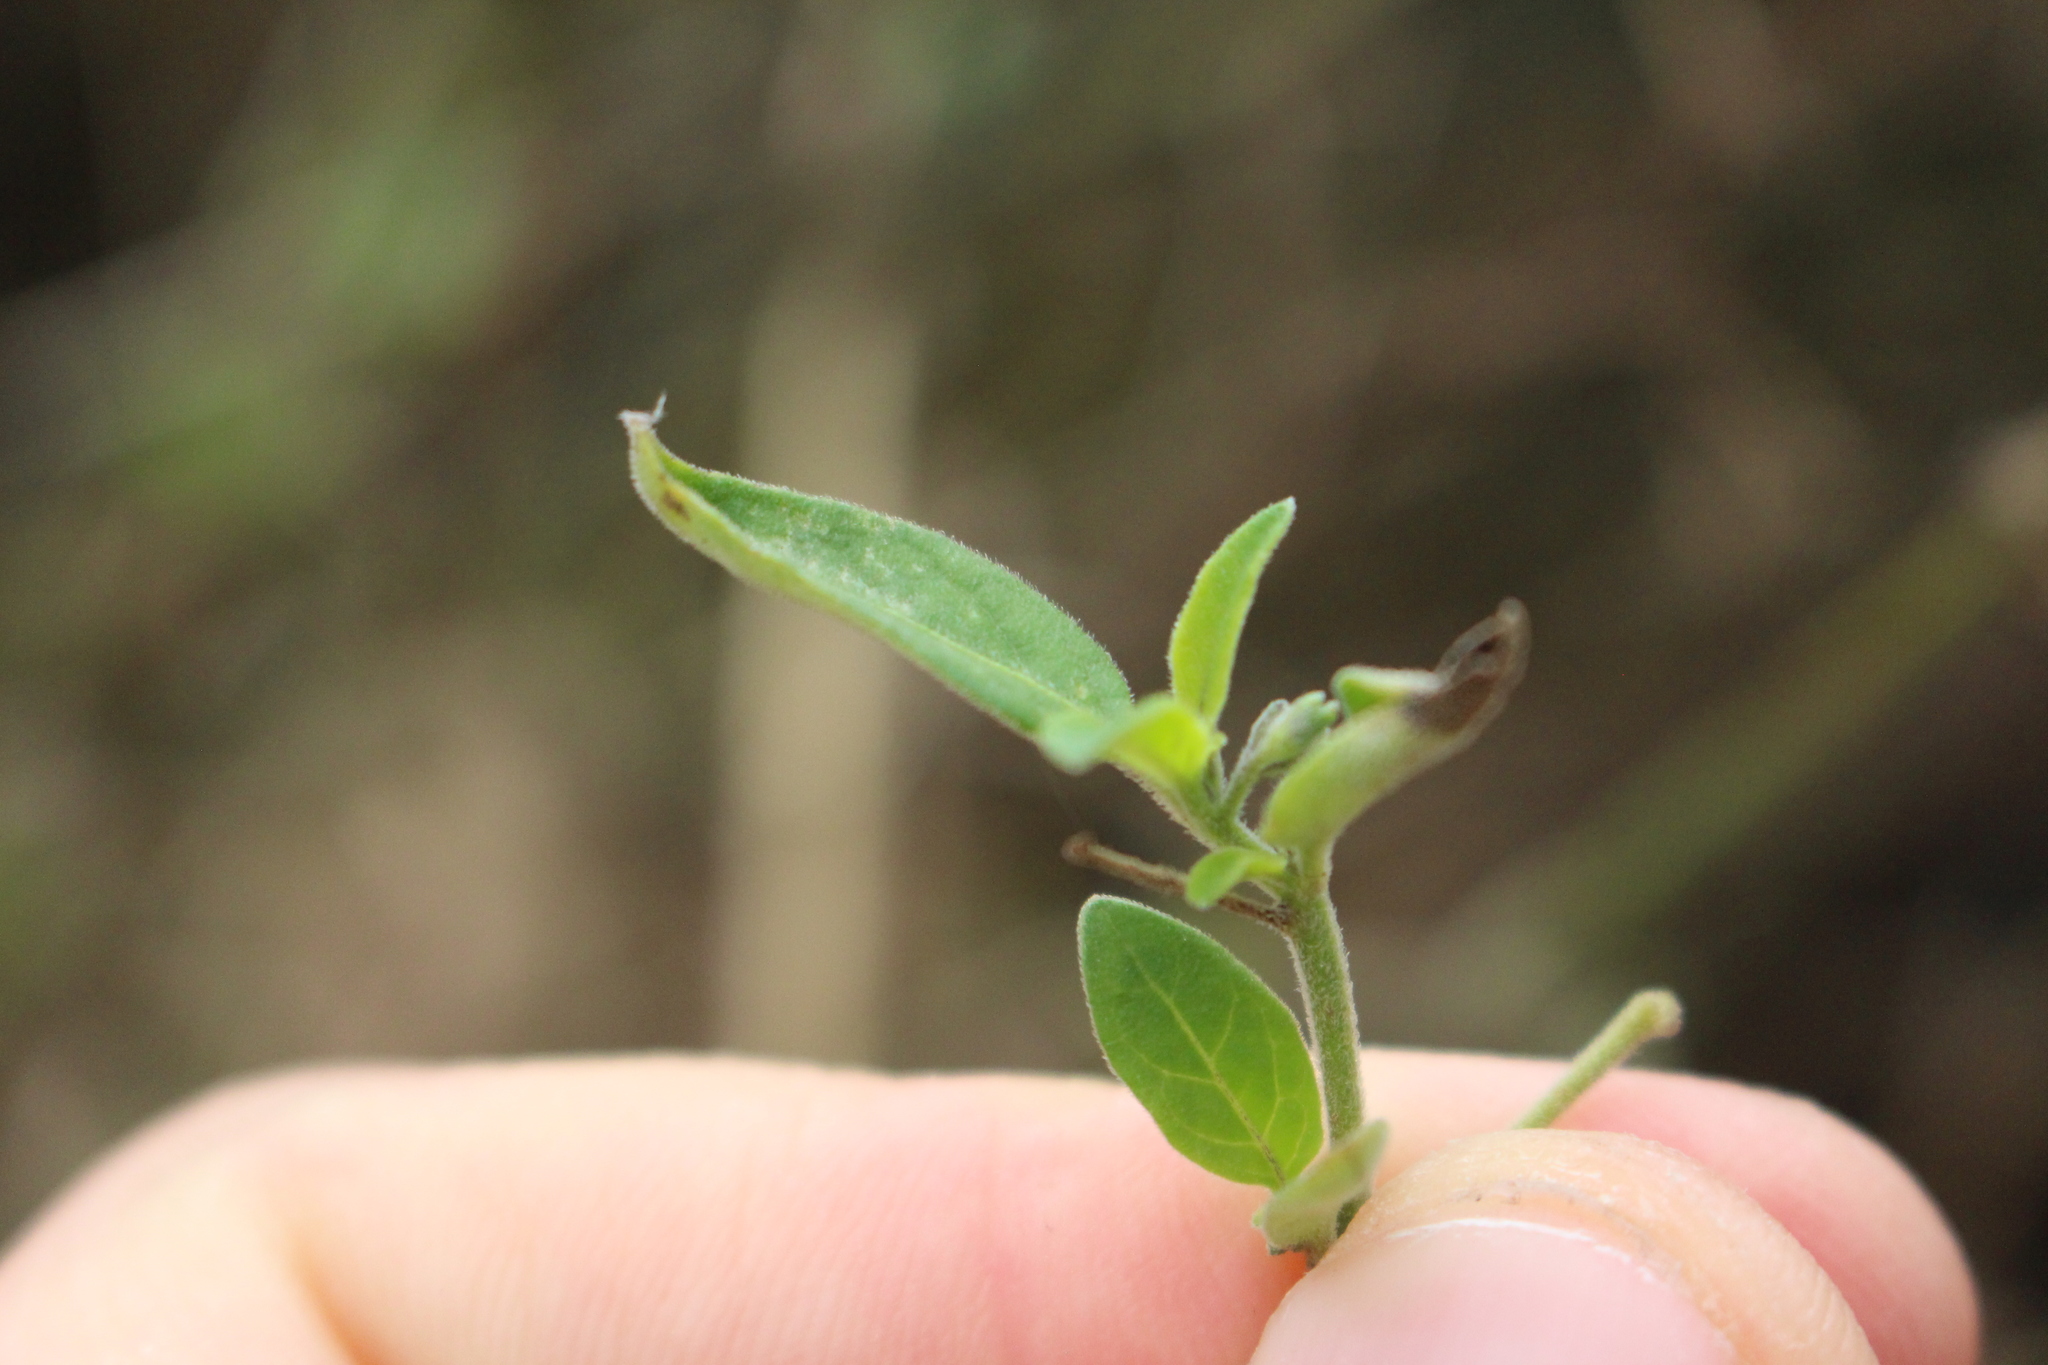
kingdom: Plantae
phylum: Tracheophyta
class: Magnoliopsida
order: Solanales
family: Solanaceae
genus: Solanum
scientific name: Solanum chenopodioides
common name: Tall nightshade
